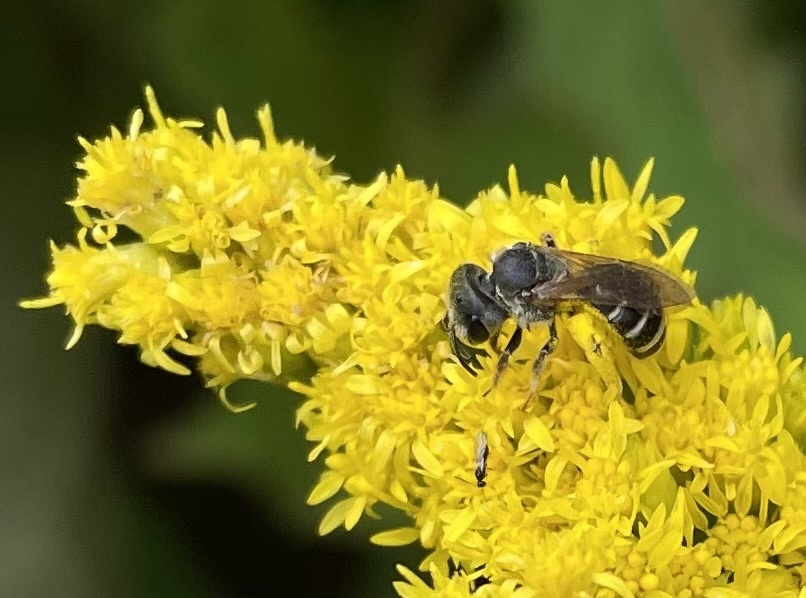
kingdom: Animalia
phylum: Arthropoda
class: Insecta
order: Hymenoptera
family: Halictidae
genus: Halictus
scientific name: Halictus ligatus
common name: Ligated furrow bee
